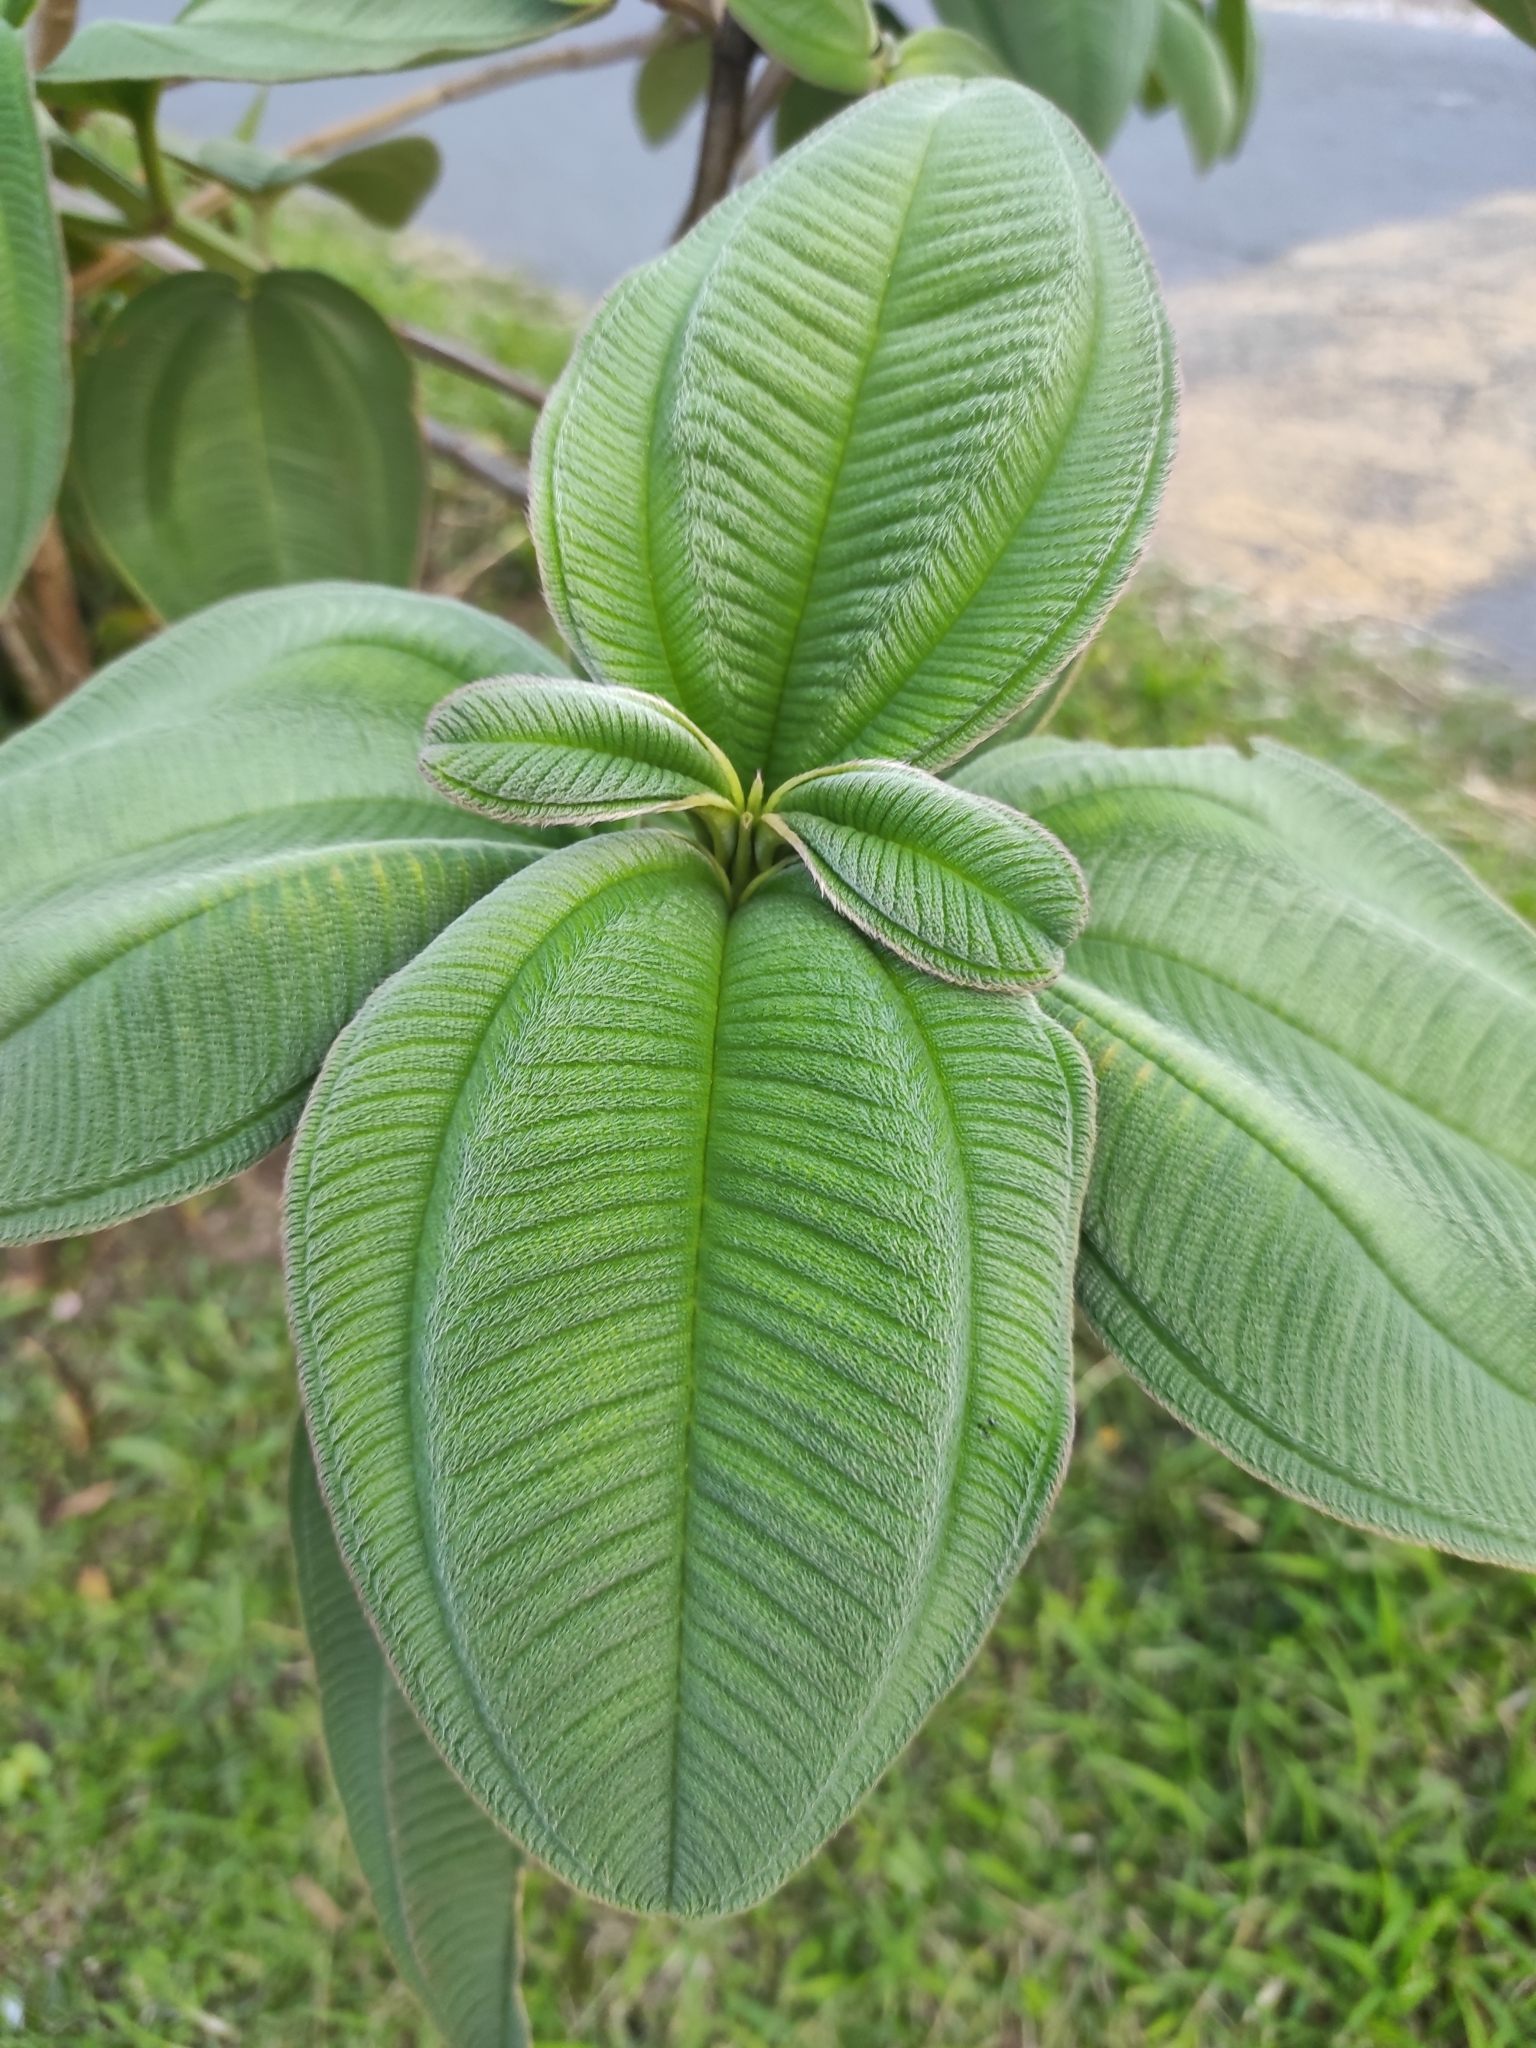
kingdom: Plantae
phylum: Tracheophyta
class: Magnoliopsida
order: Myrtales
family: Melastomataceae
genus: Pleroma
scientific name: Pleroma heteromallum
